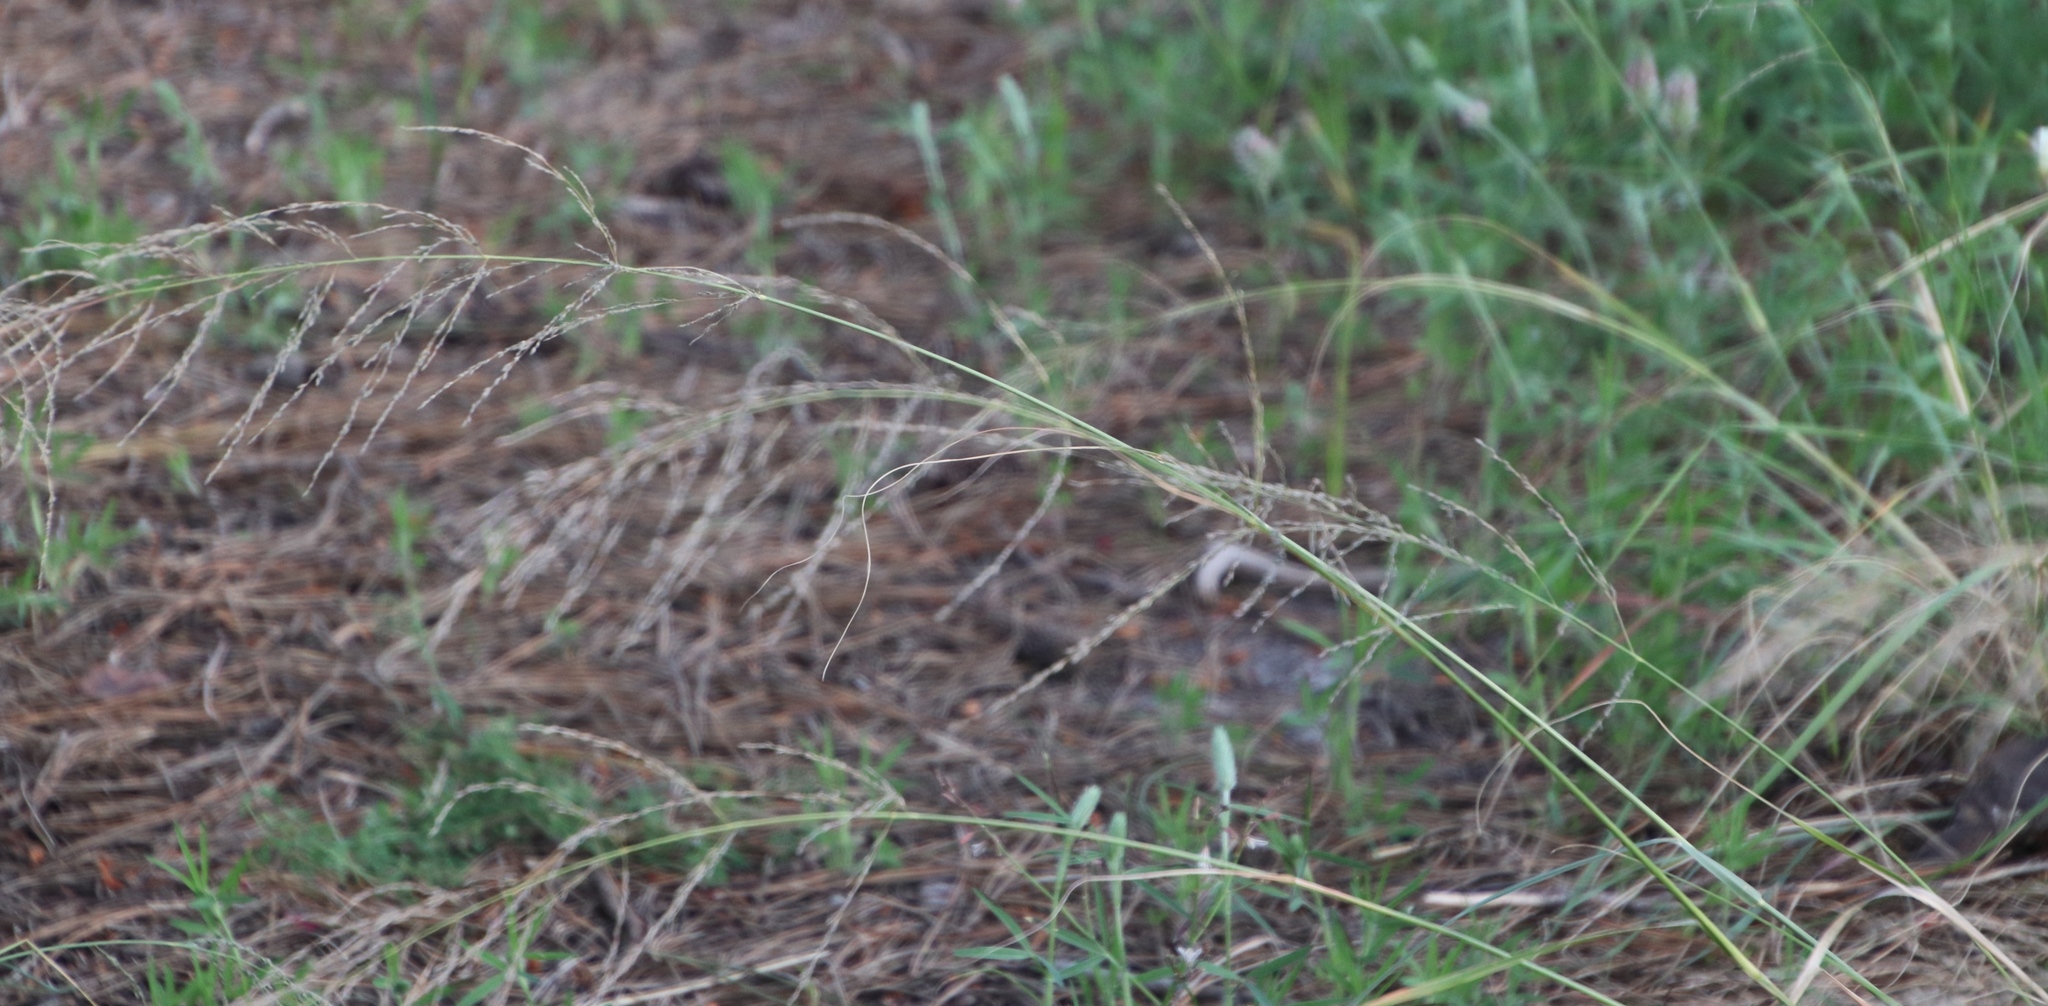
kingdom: Plantae
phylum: Tracheophyta
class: Liliopsida
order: Poales
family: Poaceae
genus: Eragrostis
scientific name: Eragrostis curvula
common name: African love-grass
